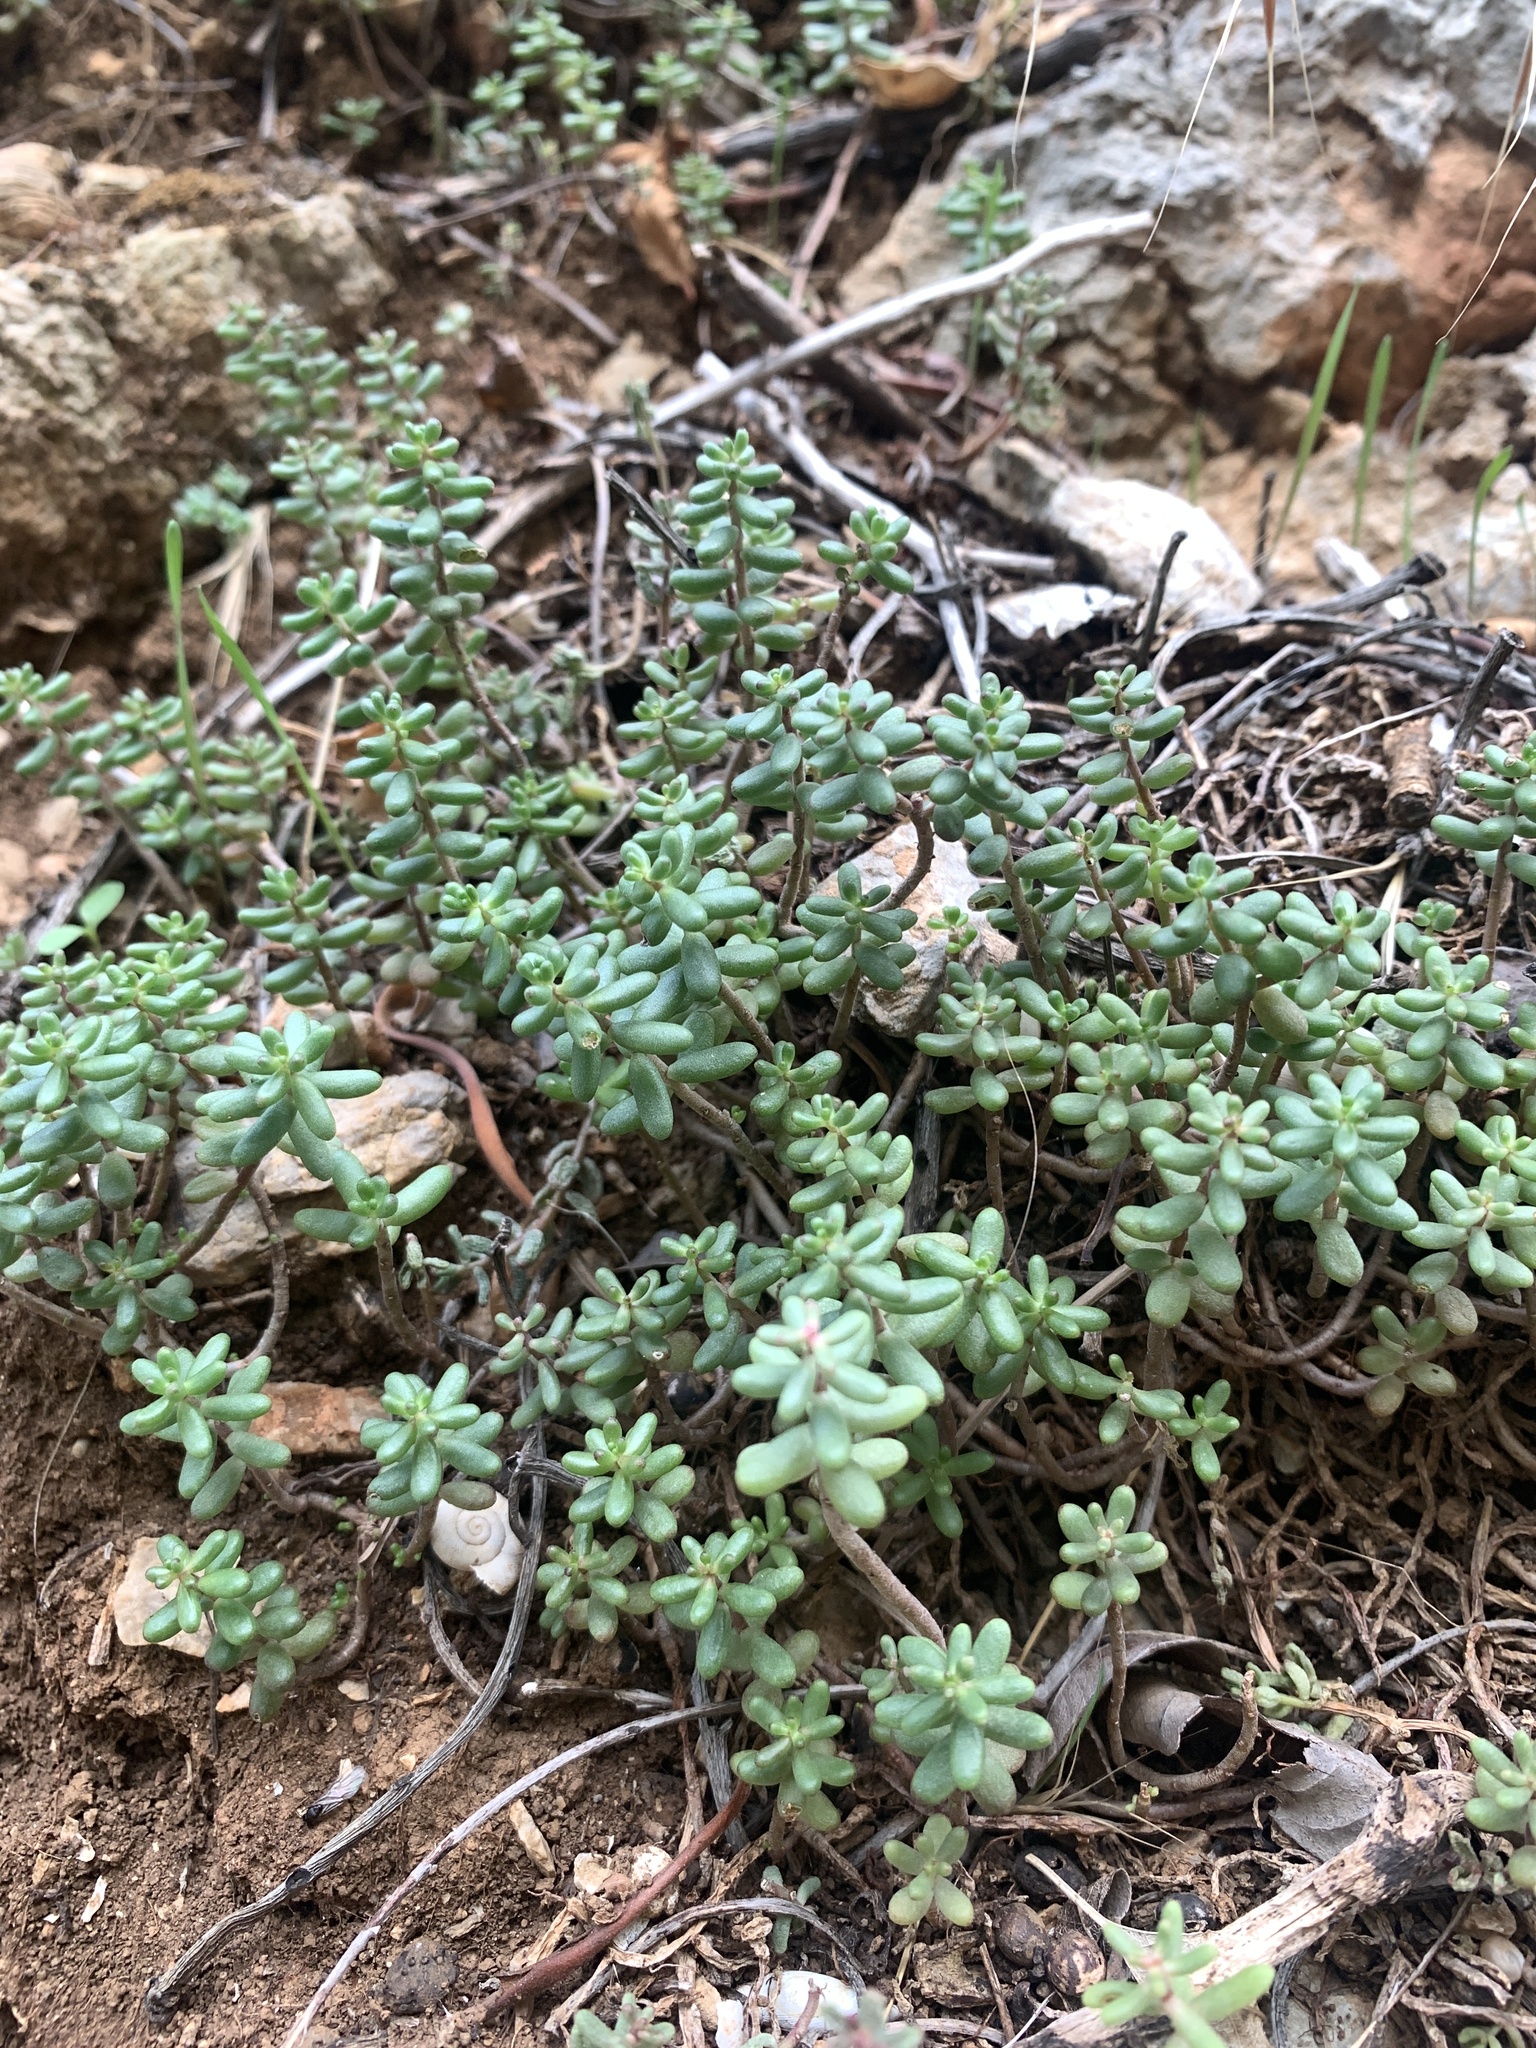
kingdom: Plantae
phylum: Tracheophyta
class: Magnoliopsida
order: Saxifragales
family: Crassulaceae
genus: Sedum
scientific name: Sedum album
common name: White stonecrop
